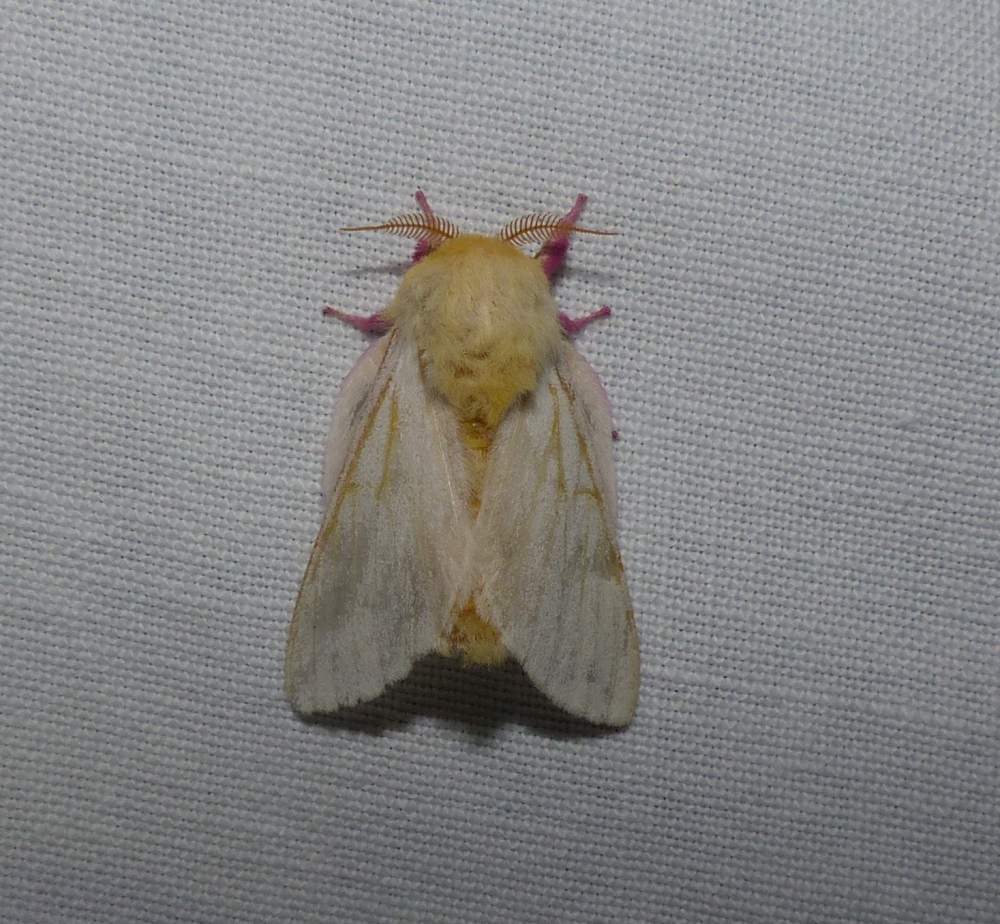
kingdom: Animalia
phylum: Arthropoda
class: Insecta
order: Lepidoptera
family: Saturniidae
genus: Dryocampa
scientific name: Dryocampa rubicunda
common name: Rosy maple moth
